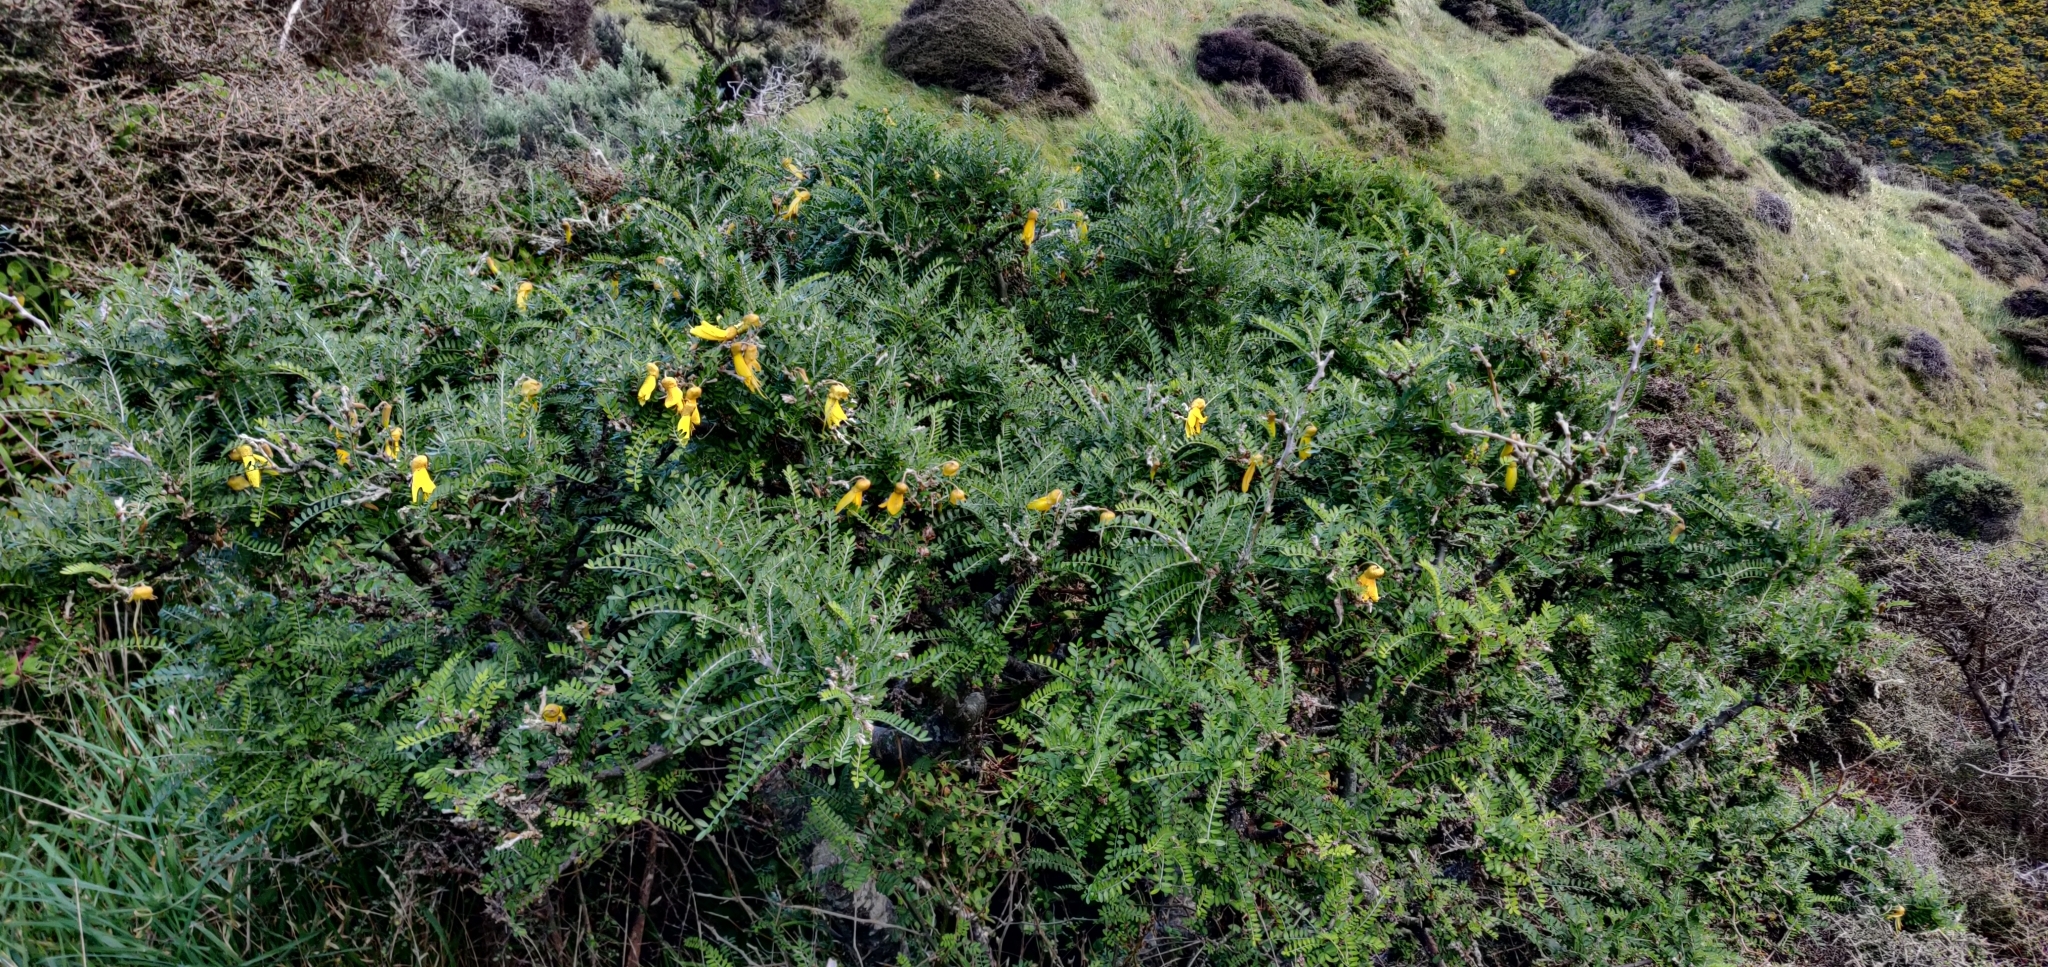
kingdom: Plantae
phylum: Tracheophyta
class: Magnoliopsida
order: Fabales
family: Fabaceae
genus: Sophora
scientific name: Sophora molloyi
